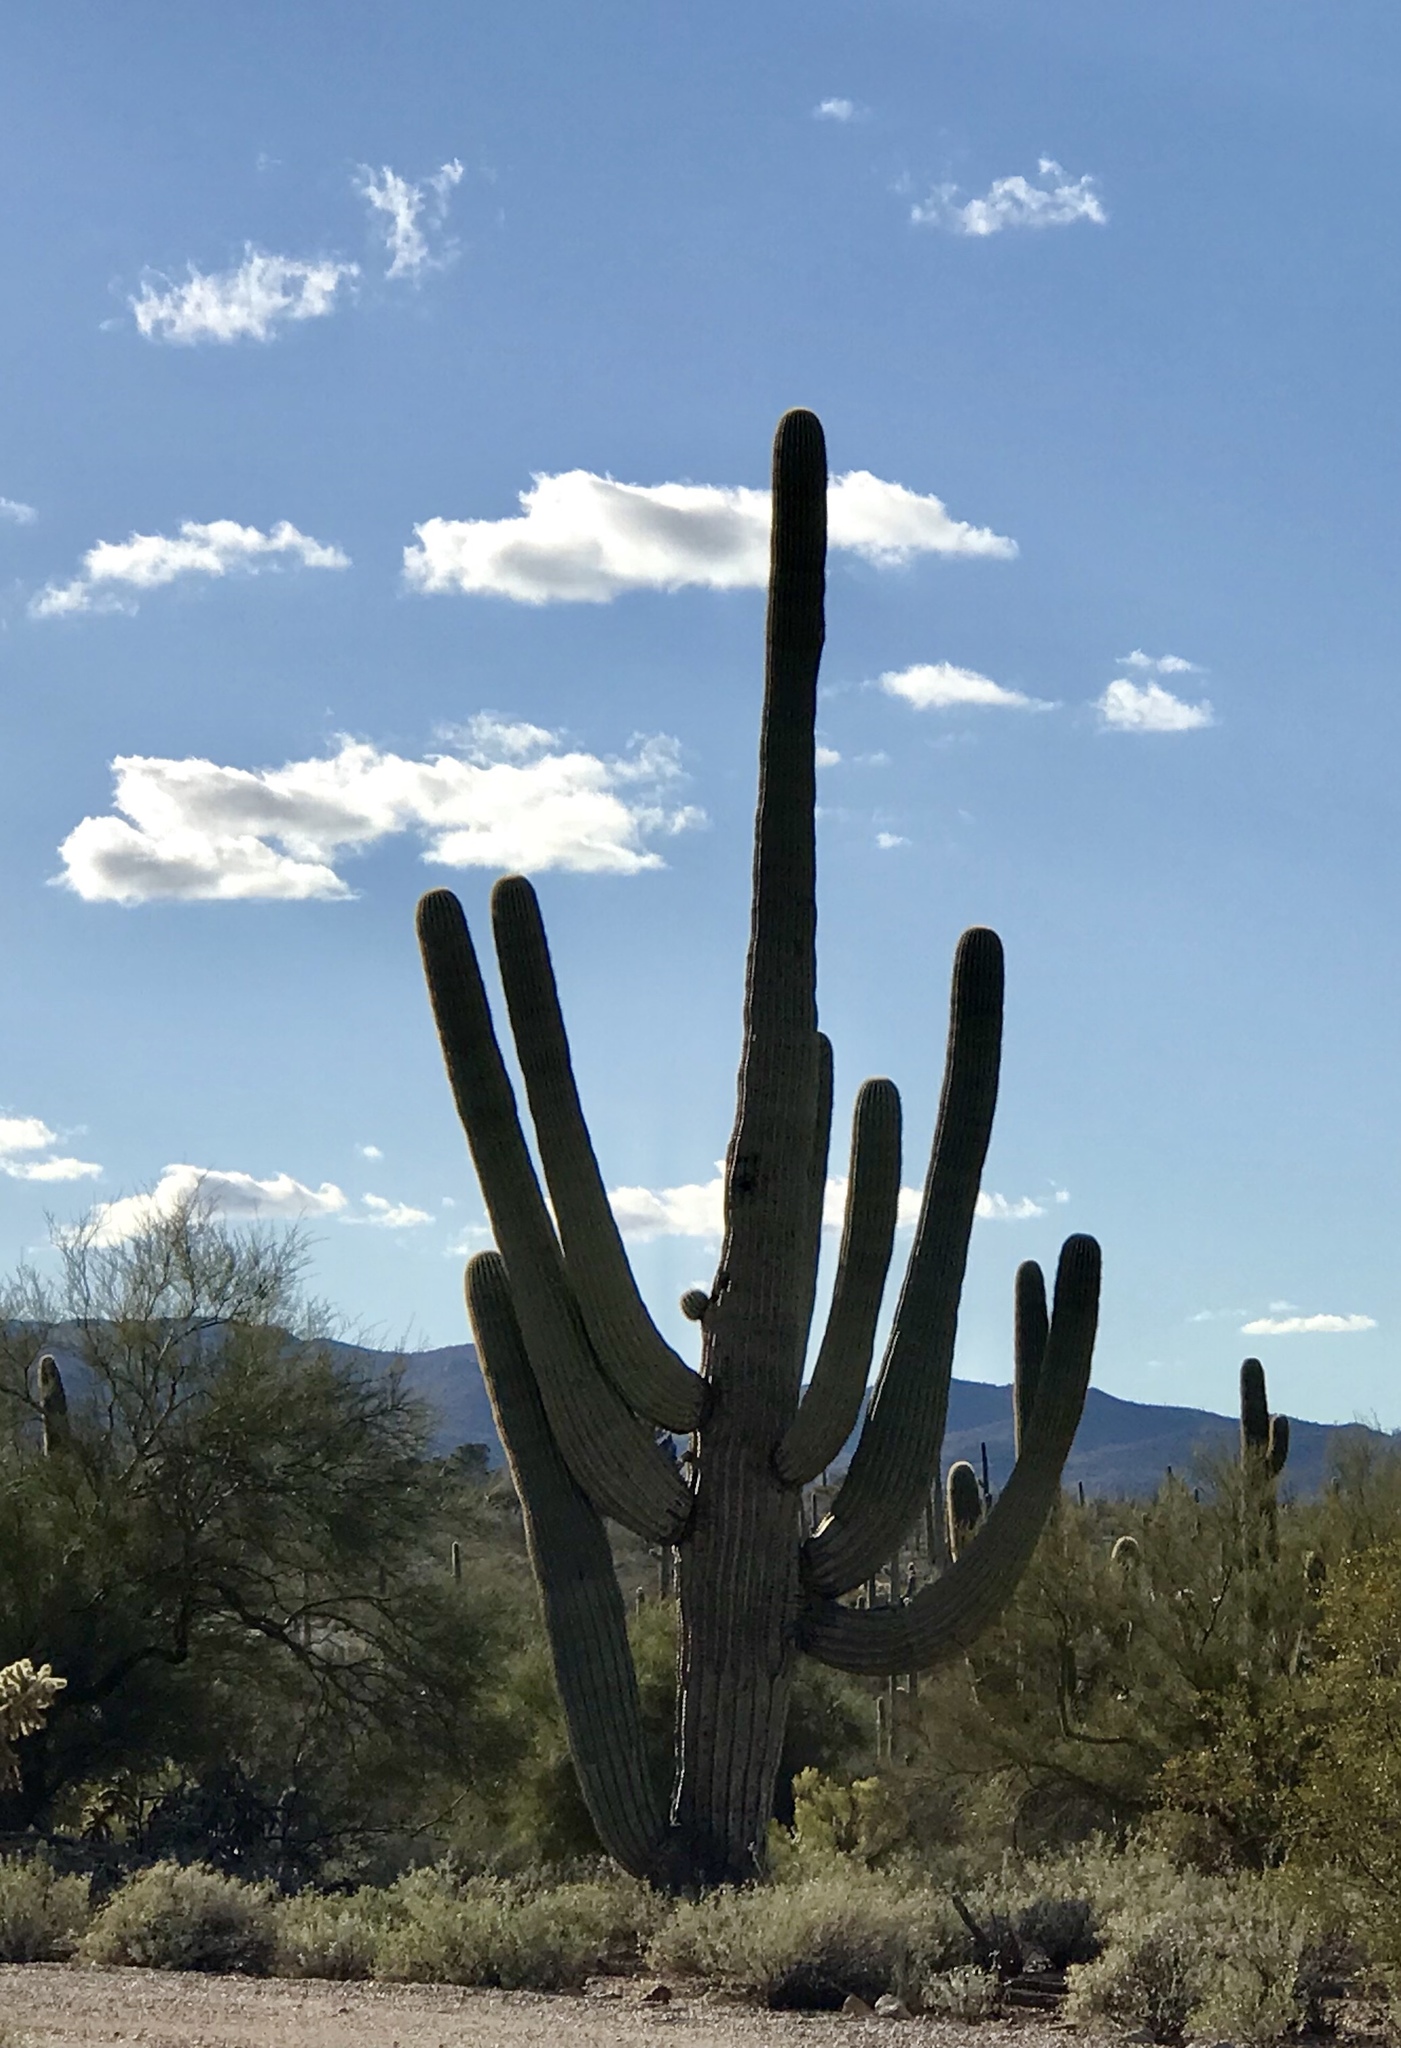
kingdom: Plantae
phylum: Tracheophyta
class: Magnoliopsida
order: Caryophyllales
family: Cactaceae
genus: Carnegiea
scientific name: Carnegiea gigantea
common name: Saguaro
